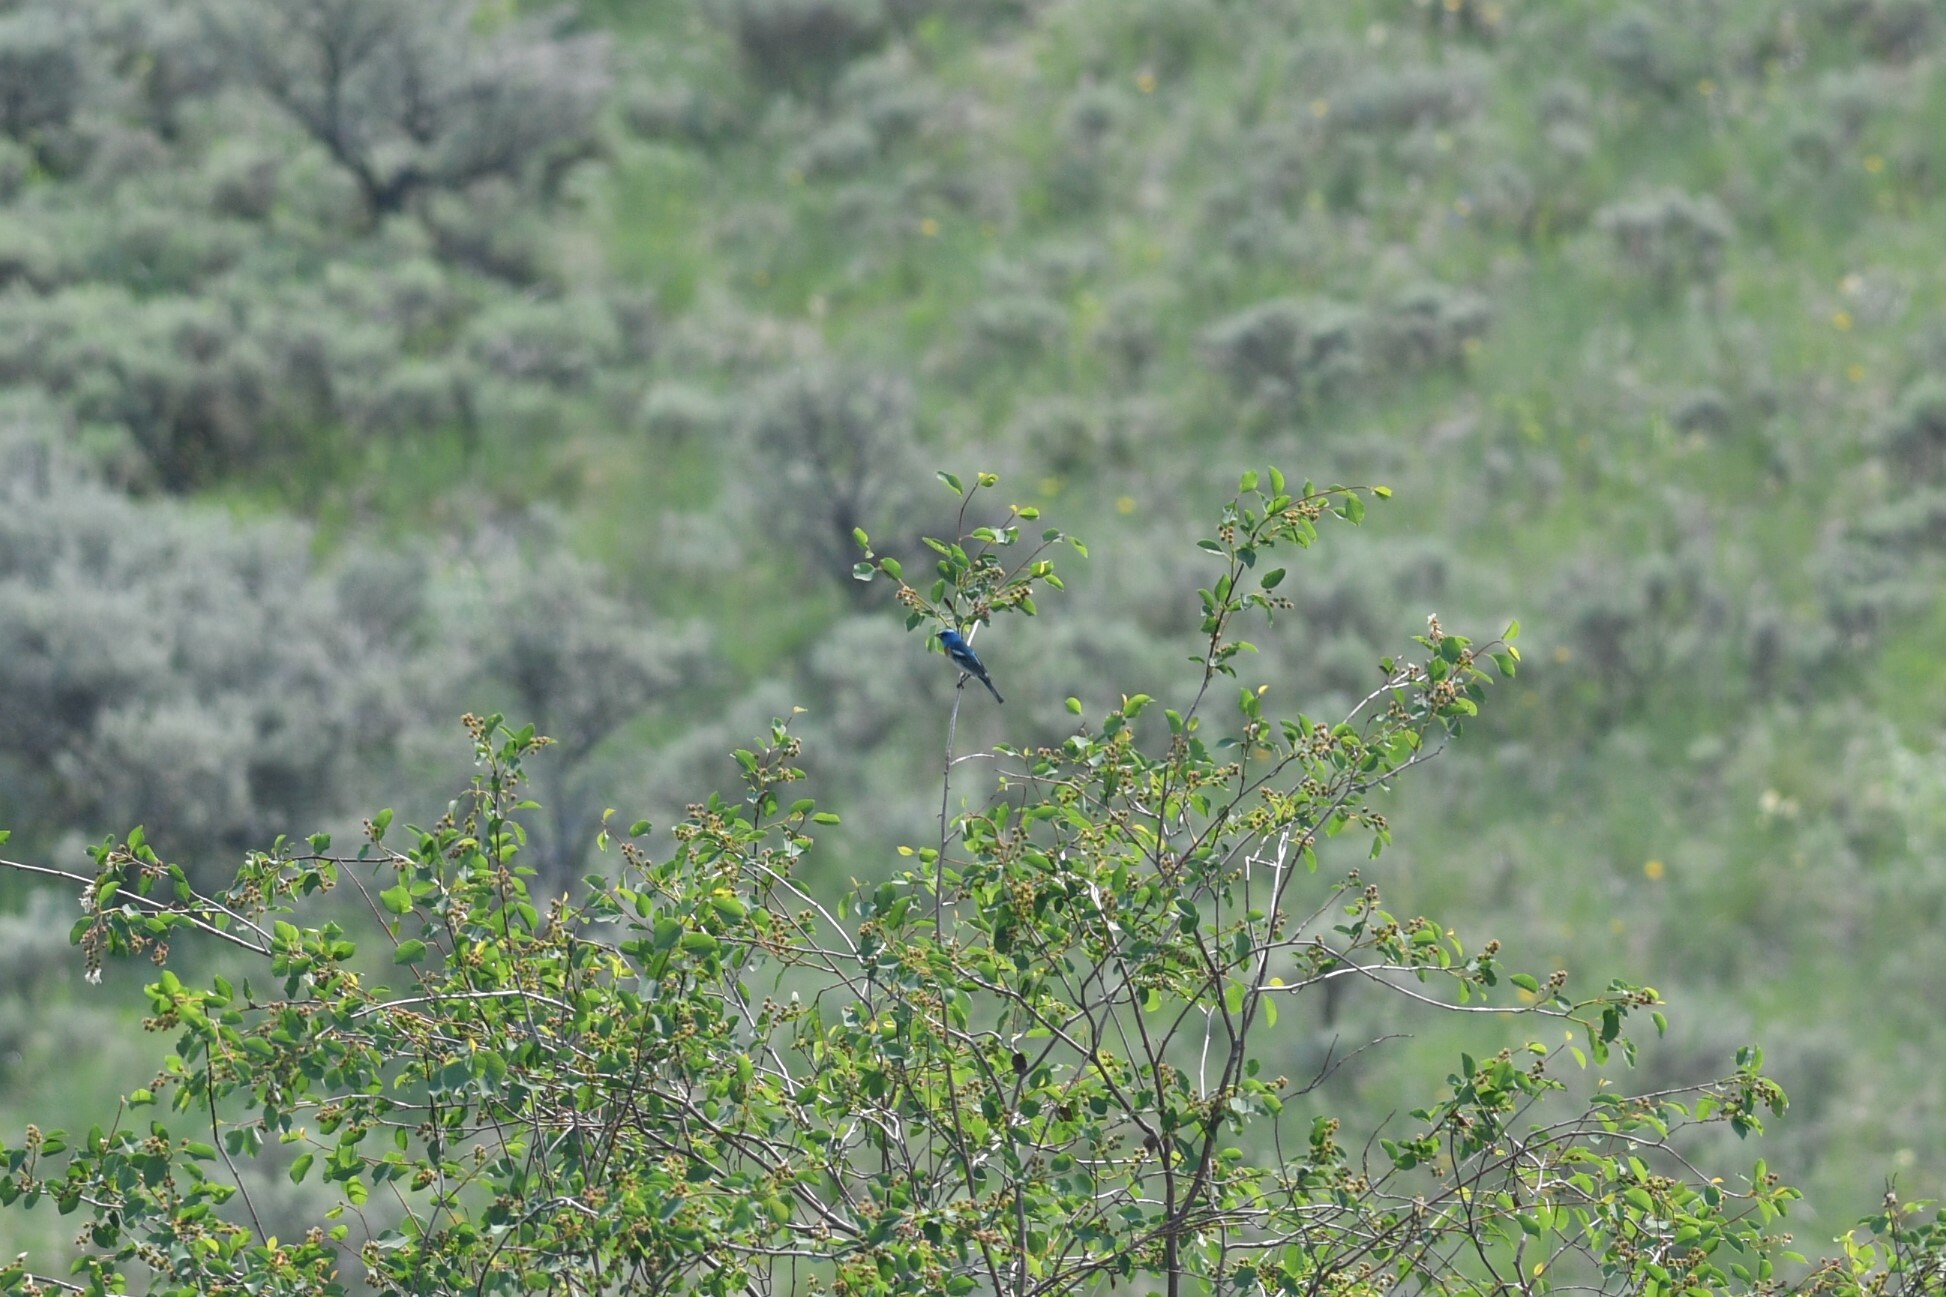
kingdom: Animalia
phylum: Chordata
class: Aves
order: Passeriformes
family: Cardinalidae
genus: Passerina
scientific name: Passerina amoena
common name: Lazuli bunting
